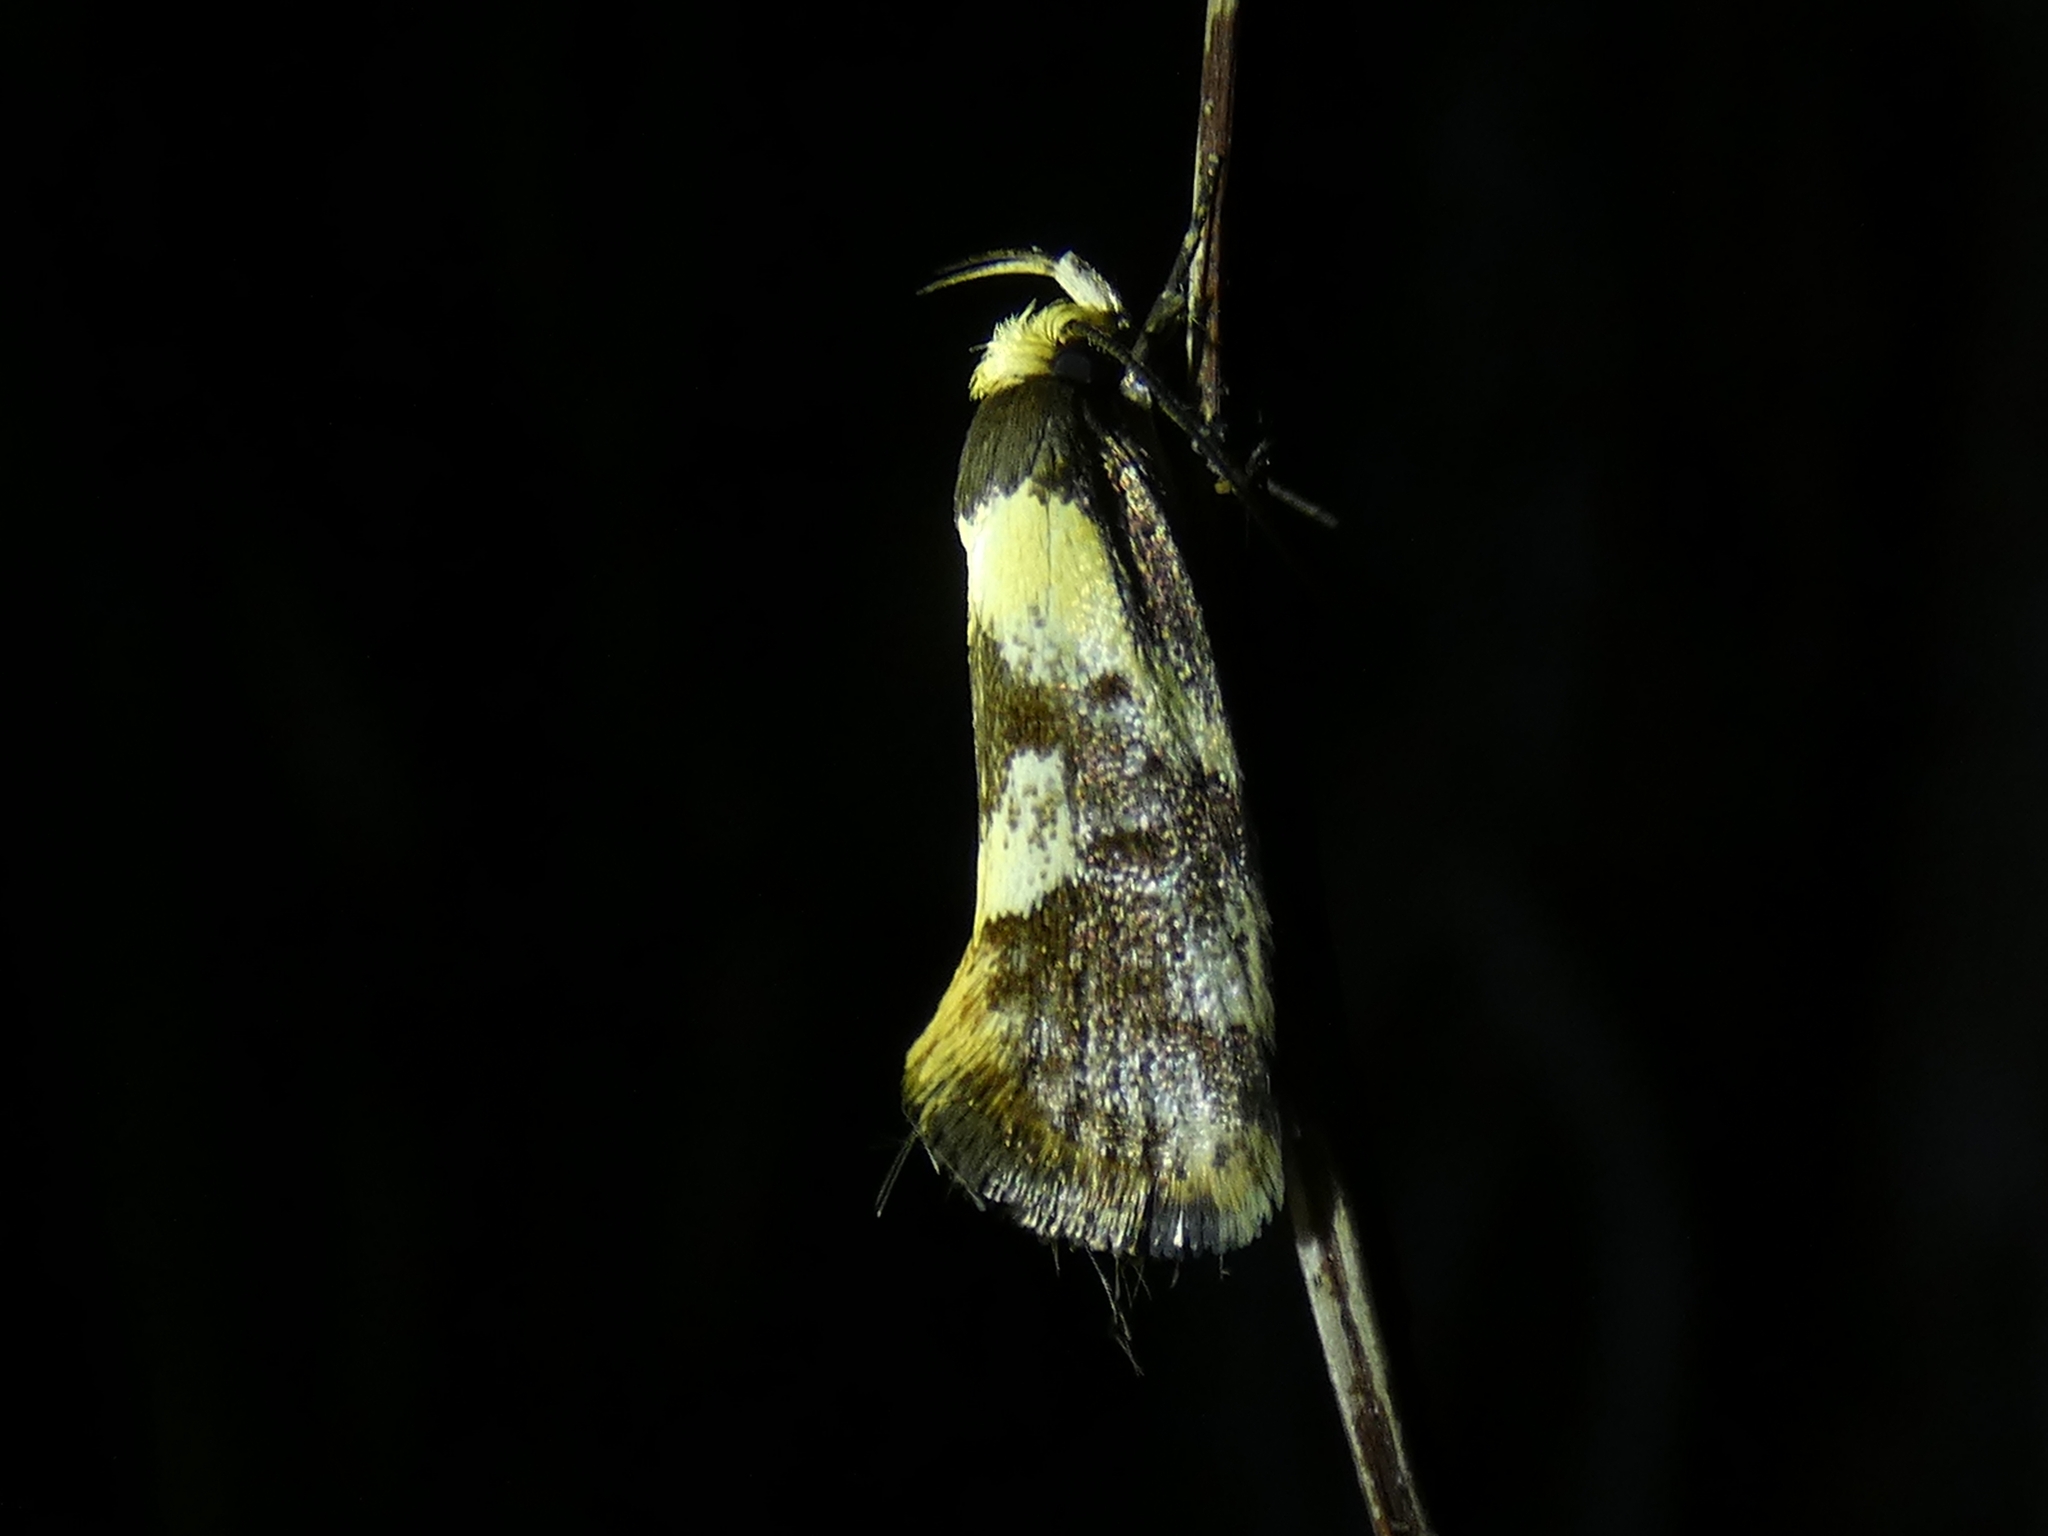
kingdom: Animalia
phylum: Arthropoda
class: Insecta
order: Lepidoptera
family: Oecophoridae
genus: Eulechria
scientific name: Eulechria marmorata
